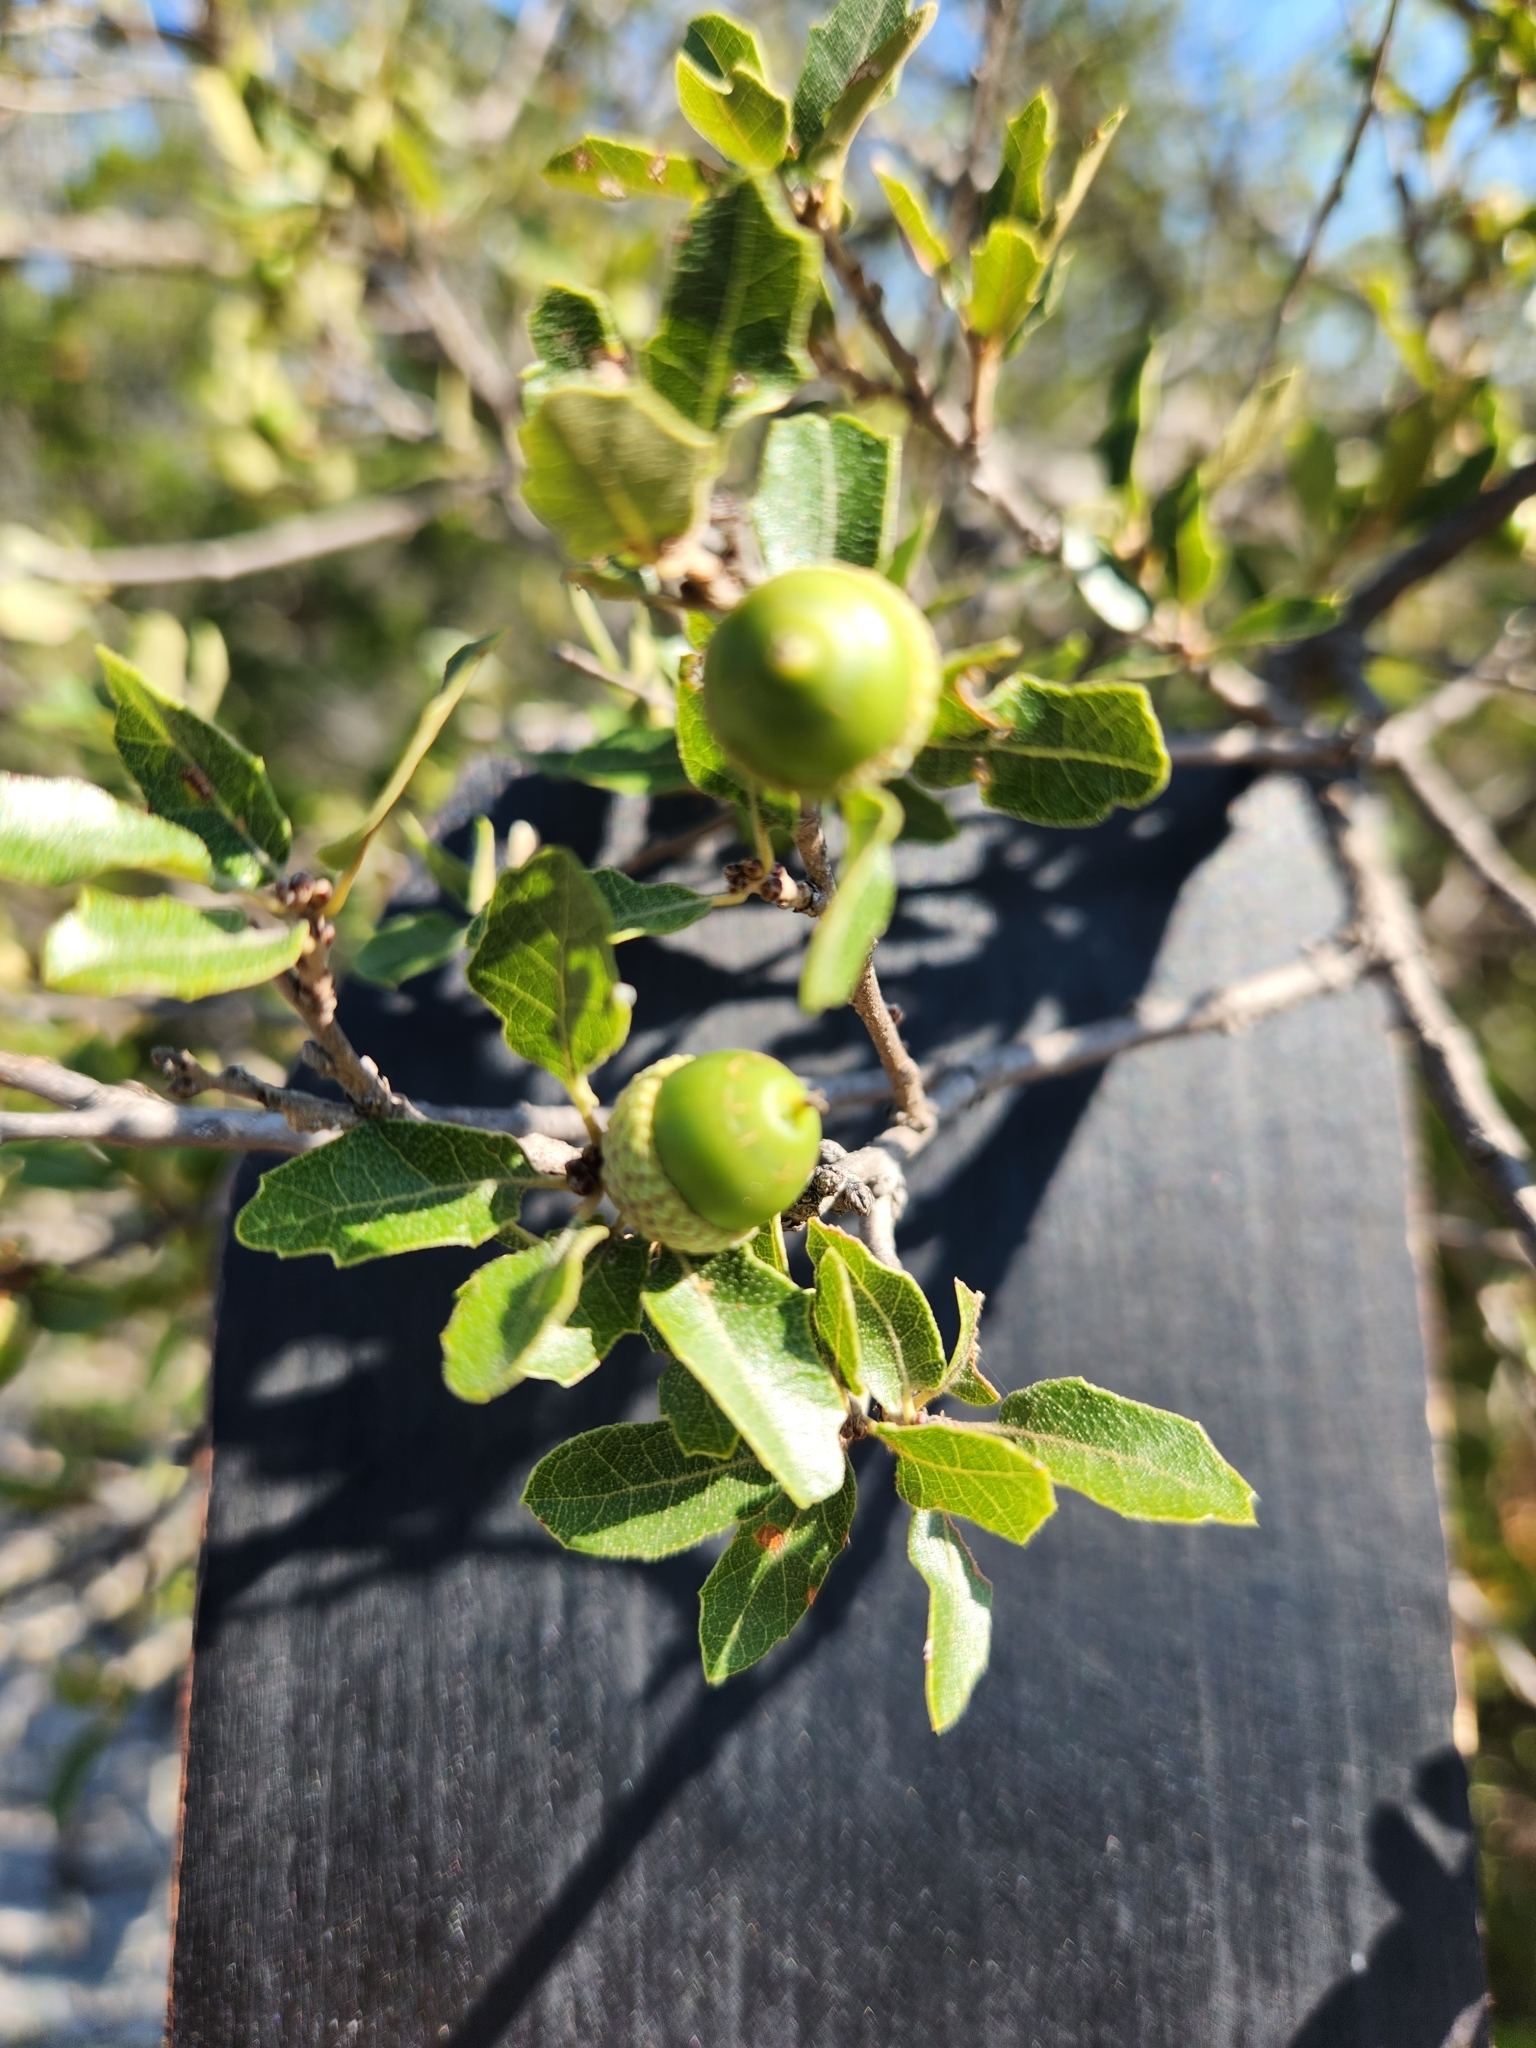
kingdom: Plantae
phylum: Tracheophyta
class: Magnoliopsida
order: Fagales
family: Fagaceae
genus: Quercus
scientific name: Quercus vaseyana
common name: Sandpaper oak
